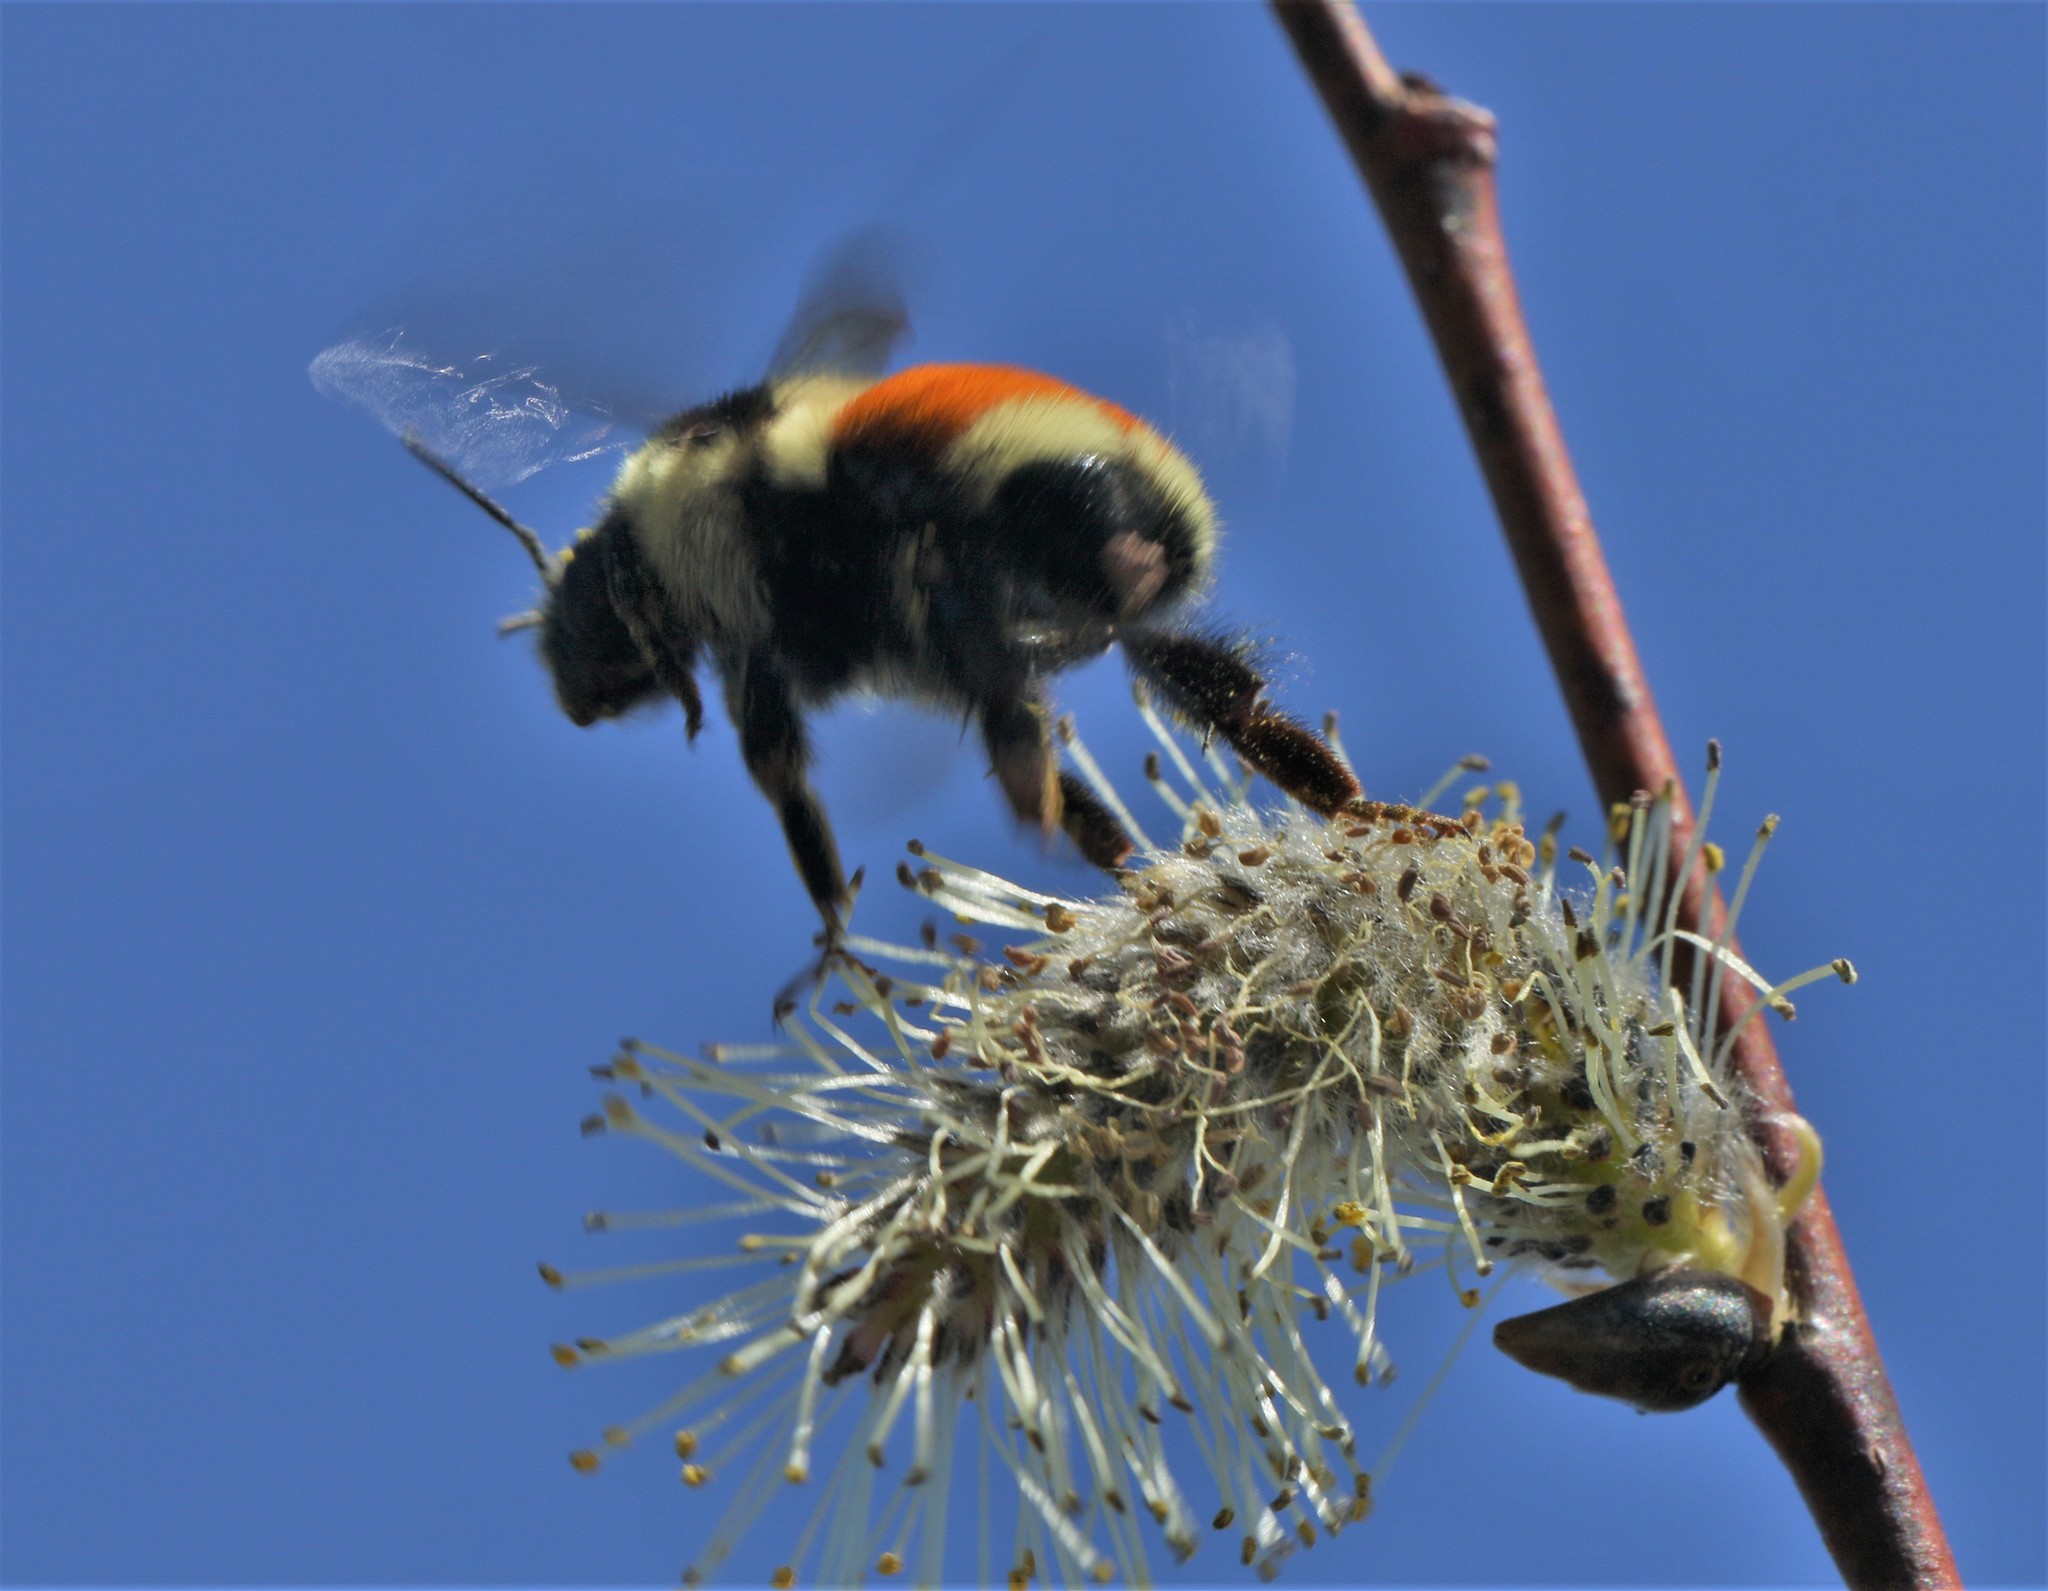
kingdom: Animalia
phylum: Arthropoda
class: Insecta
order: Hymenoptera
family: Apidae
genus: Bombus
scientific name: Bombus ternarius
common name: Tri-colored bumble bee
